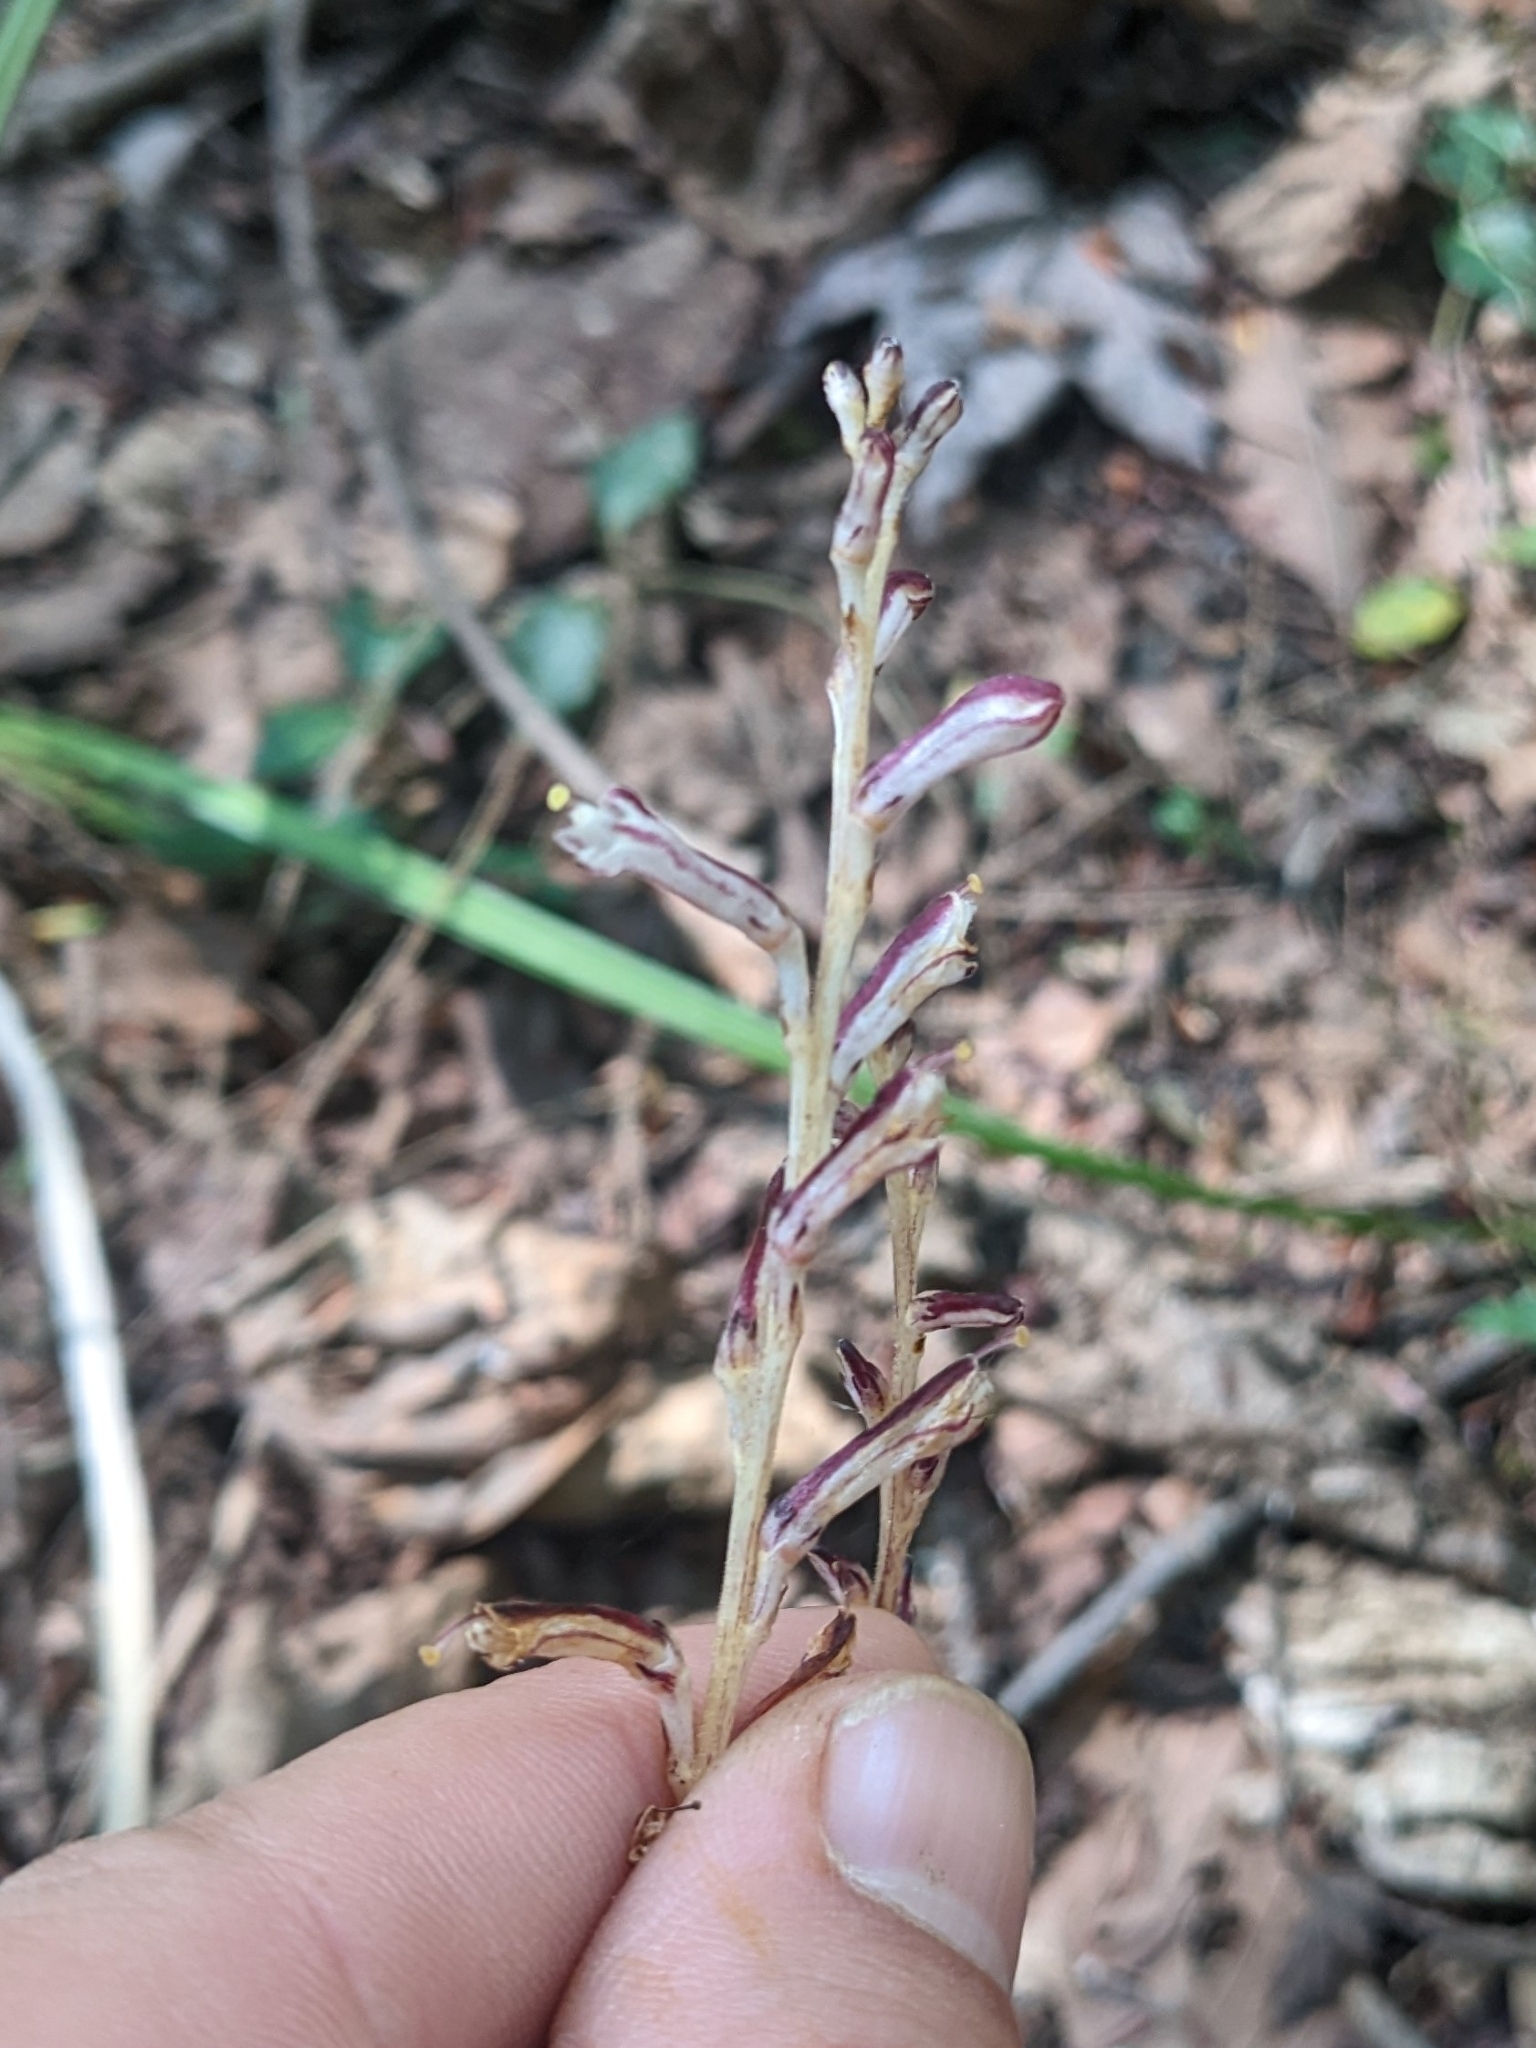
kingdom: Plantae
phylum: Tracheophyta
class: Magnoliopsida
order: Lamiales
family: Orobanchaceae
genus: Epifagus
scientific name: Epifagus virginiana
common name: Beechdrops
